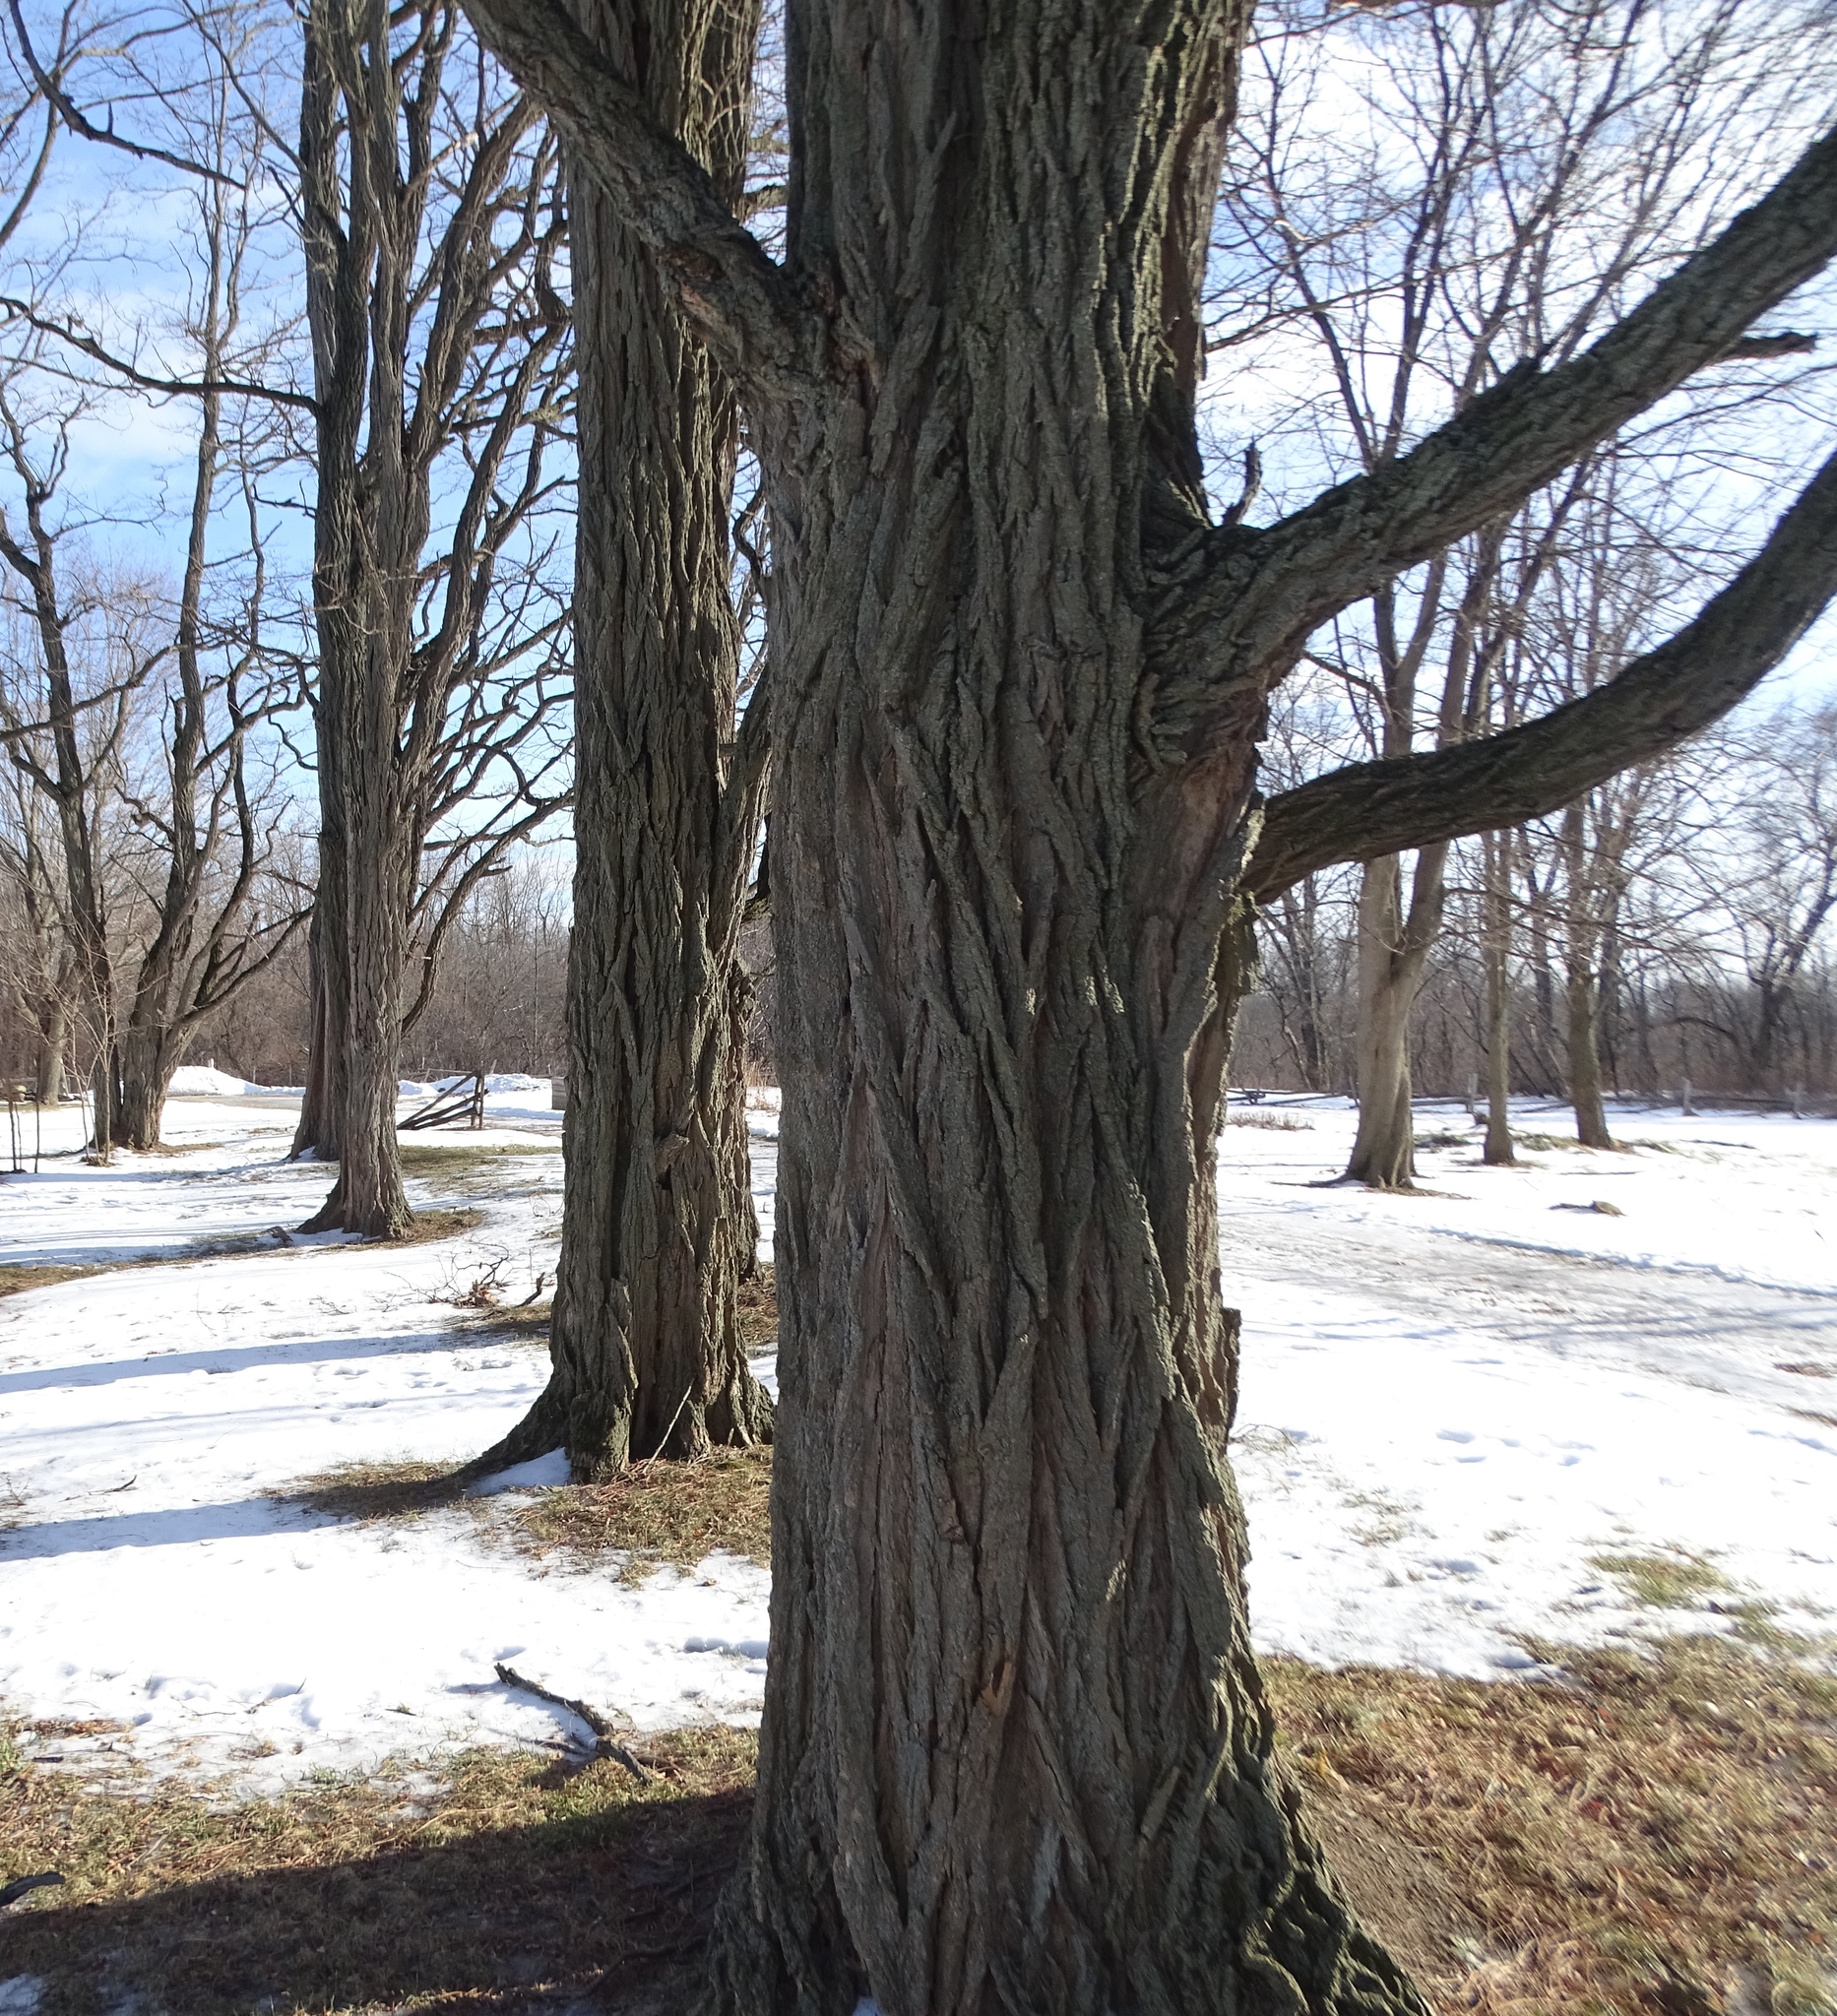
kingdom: Plantae
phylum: Tracheophyta
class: Magnoliopsida
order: Fabales
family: Fabaceae
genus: Robinia
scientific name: Robinia pseudoacacia
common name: Black locust
